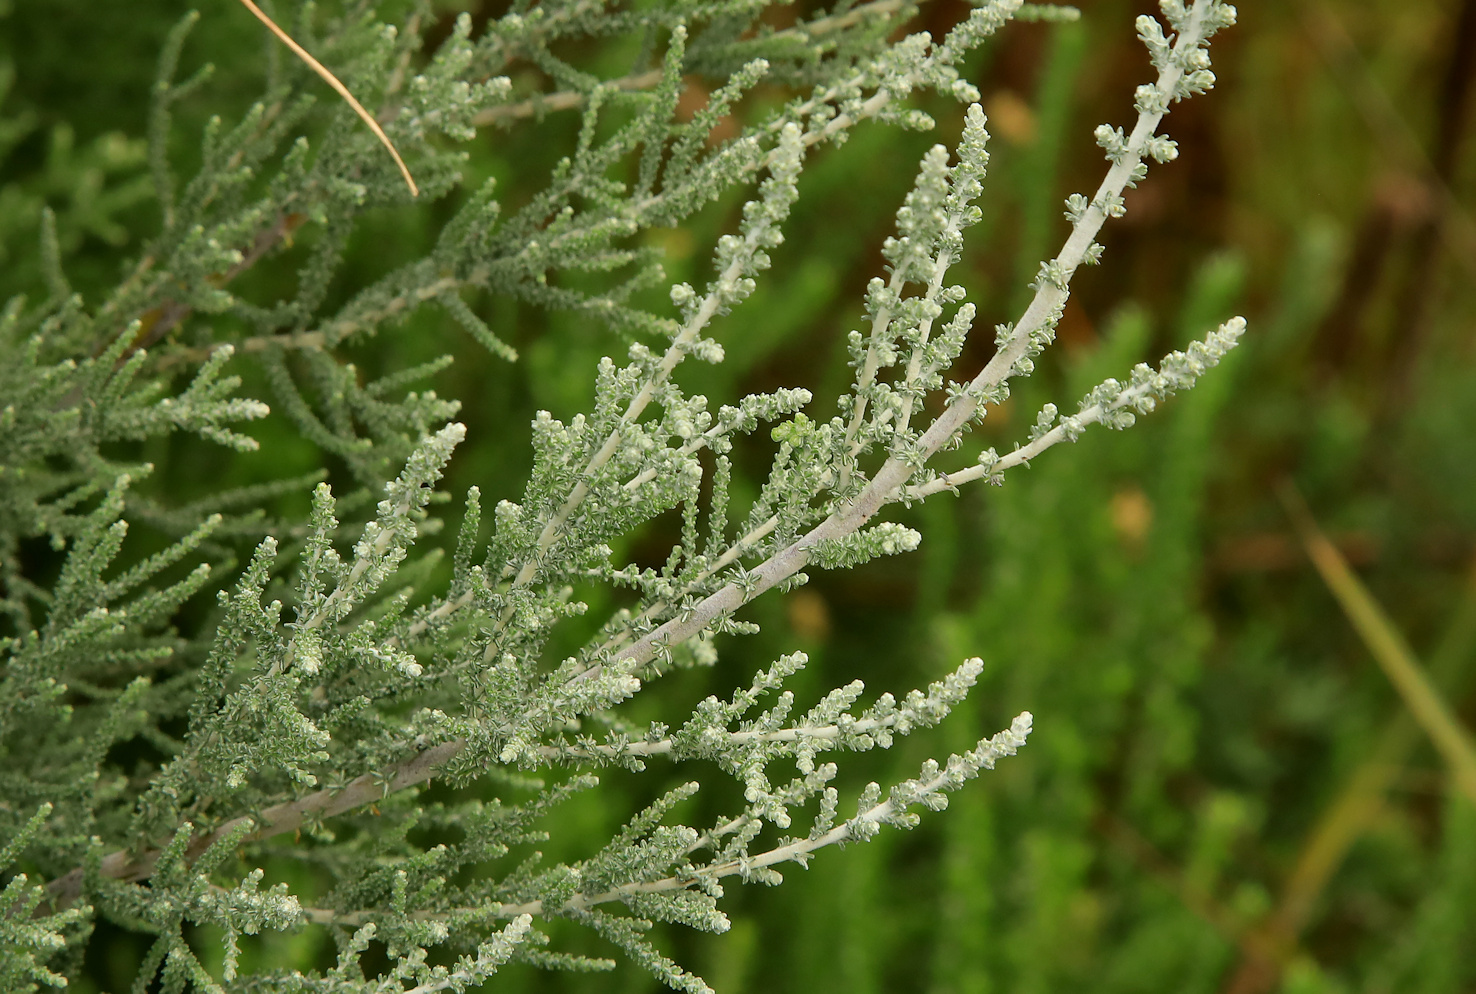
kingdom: Plantae
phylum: Tracheophyta
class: Magnoliopsida
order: Asterales
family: Asteraceae
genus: Seriphium
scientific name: Seriphium
